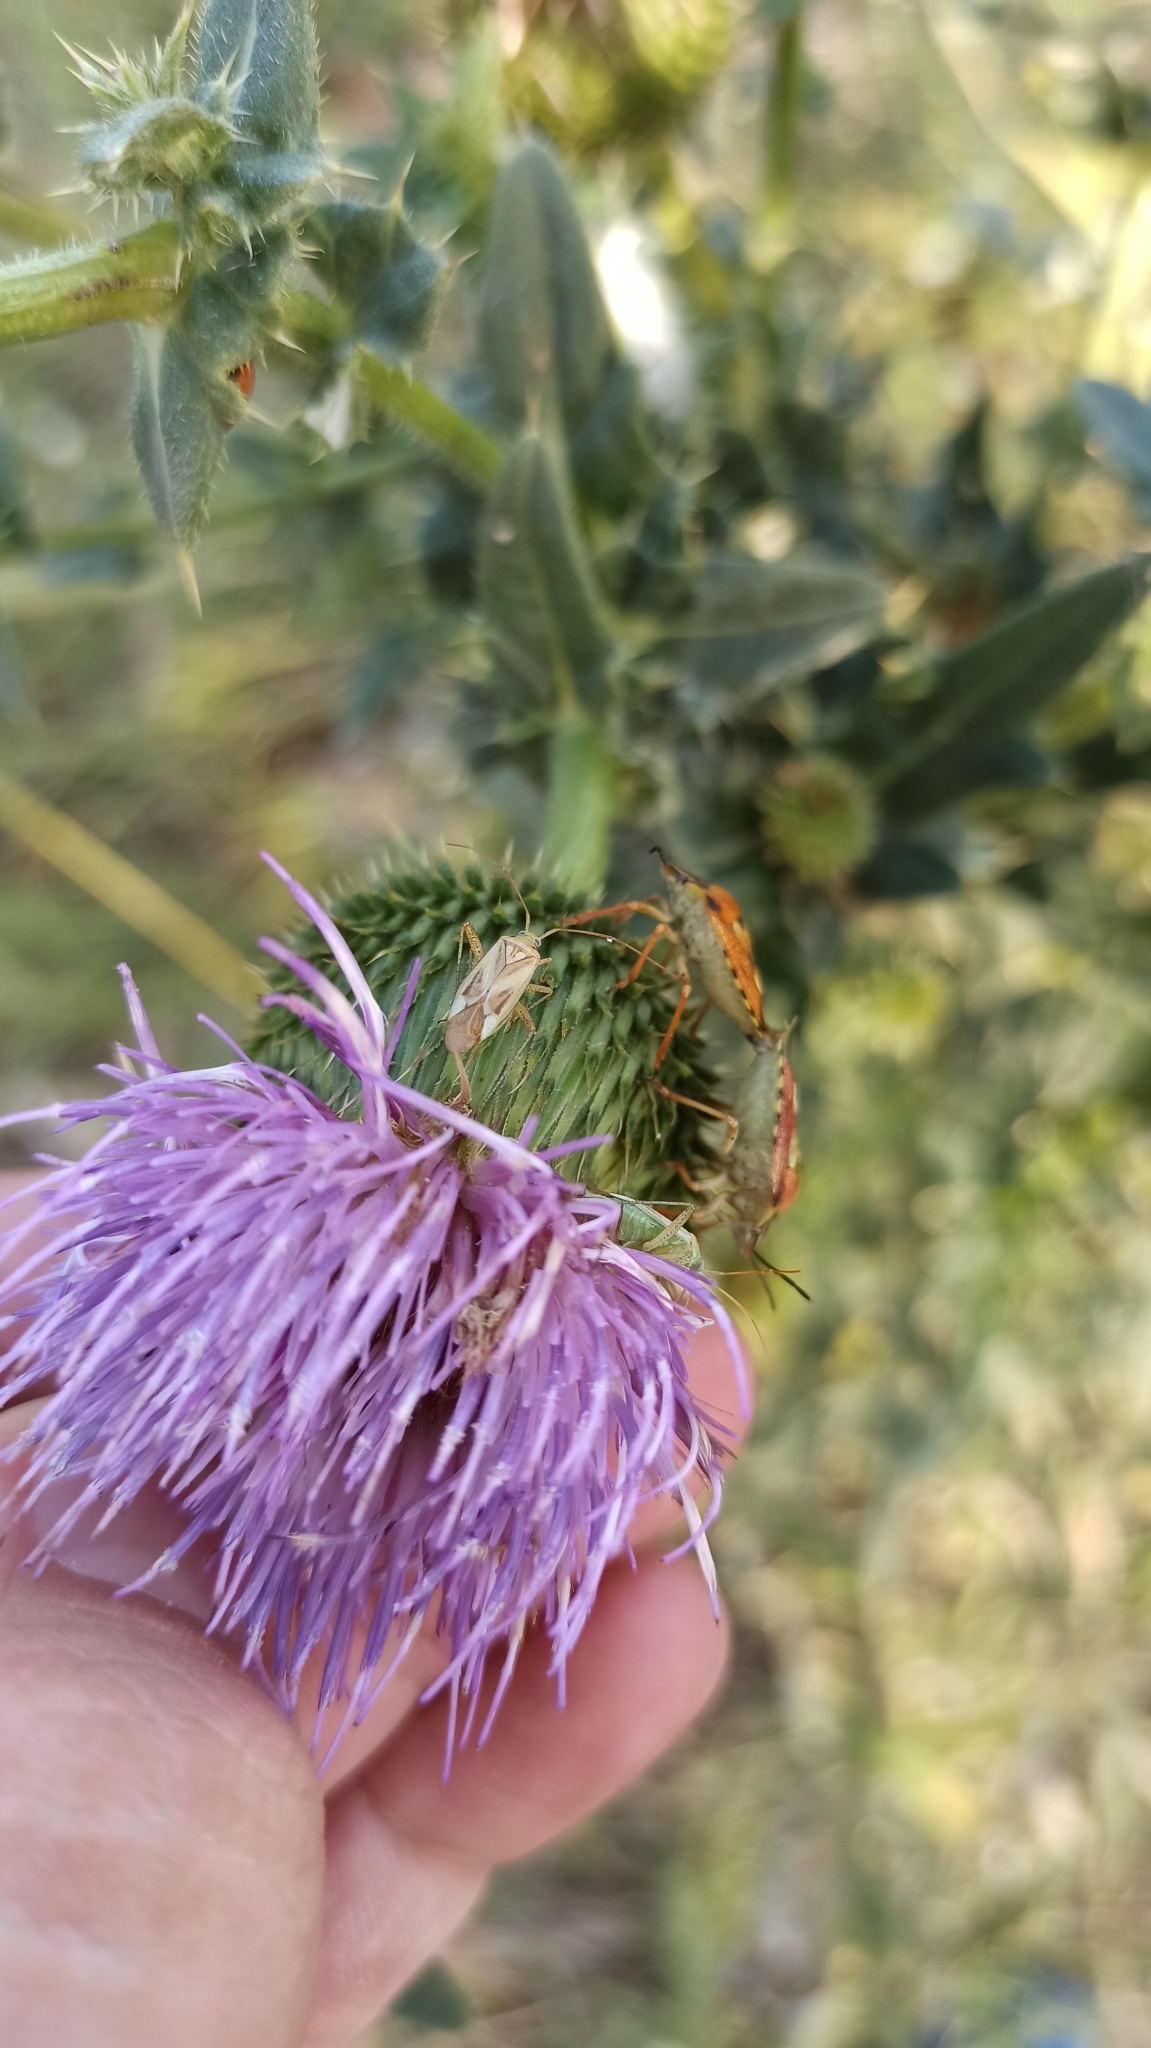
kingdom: Animalia
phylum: Arthropoda
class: Insecta
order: Hemiptera
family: Miridae
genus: Adelphocoris
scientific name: Adelphocoris lineolatus
